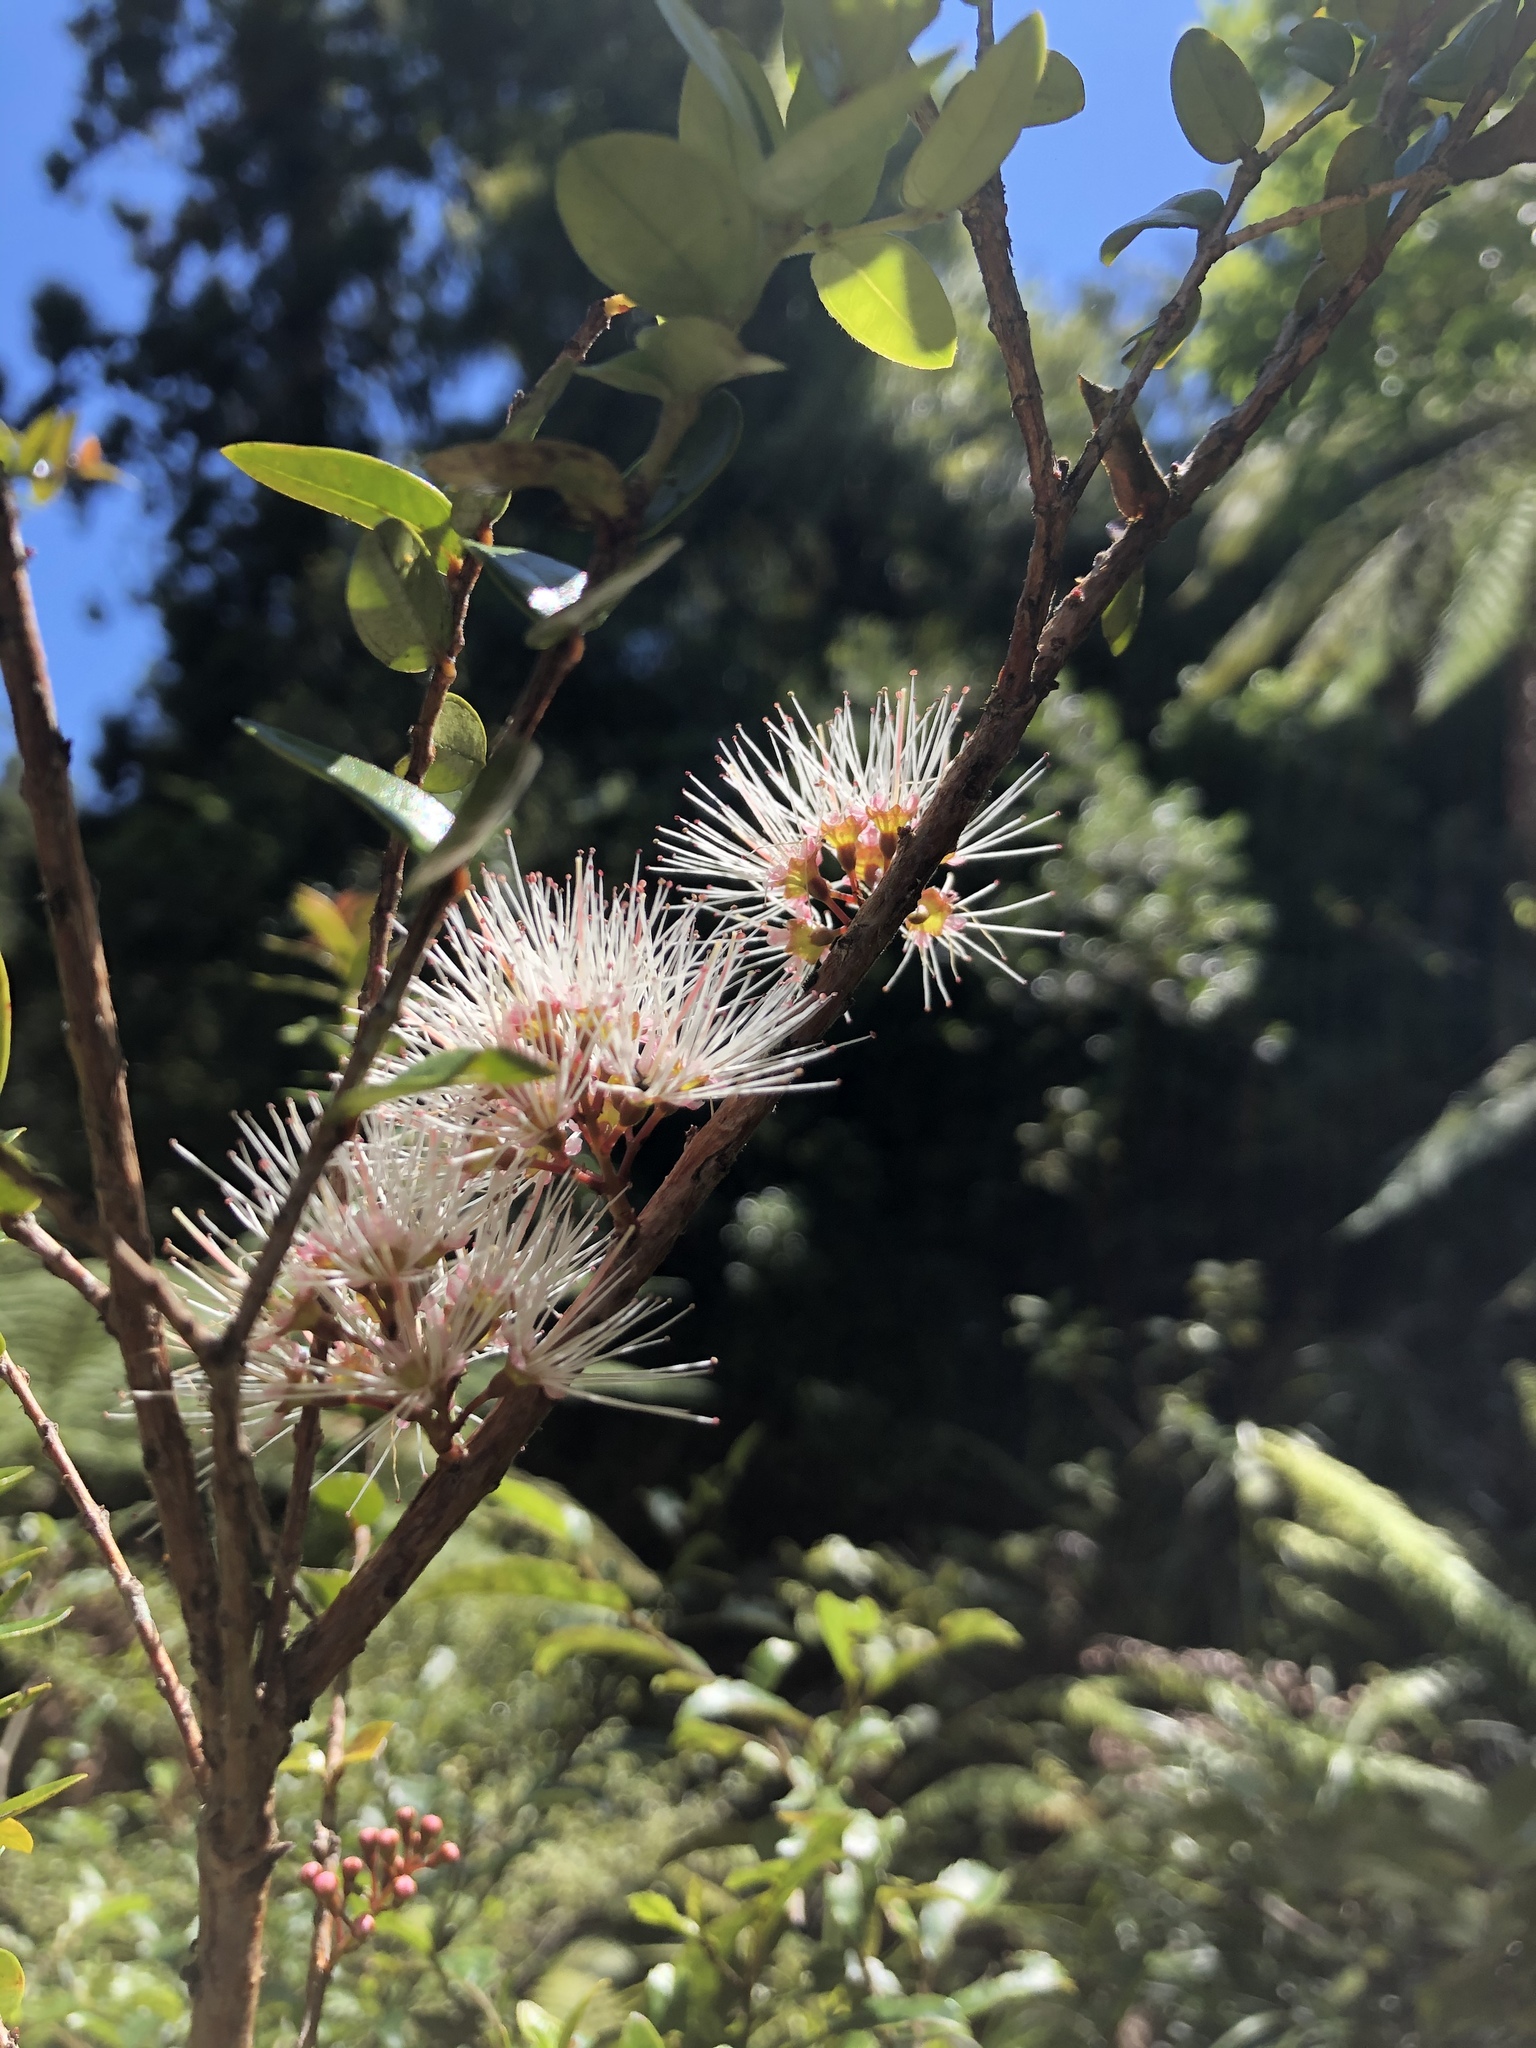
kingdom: Plantae
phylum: Tracheophyta
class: Magnoliopsida
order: Myrtales
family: Myrtaceae
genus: Metrosideros
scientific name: Metrosideros diffusa
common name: Small ratavine
